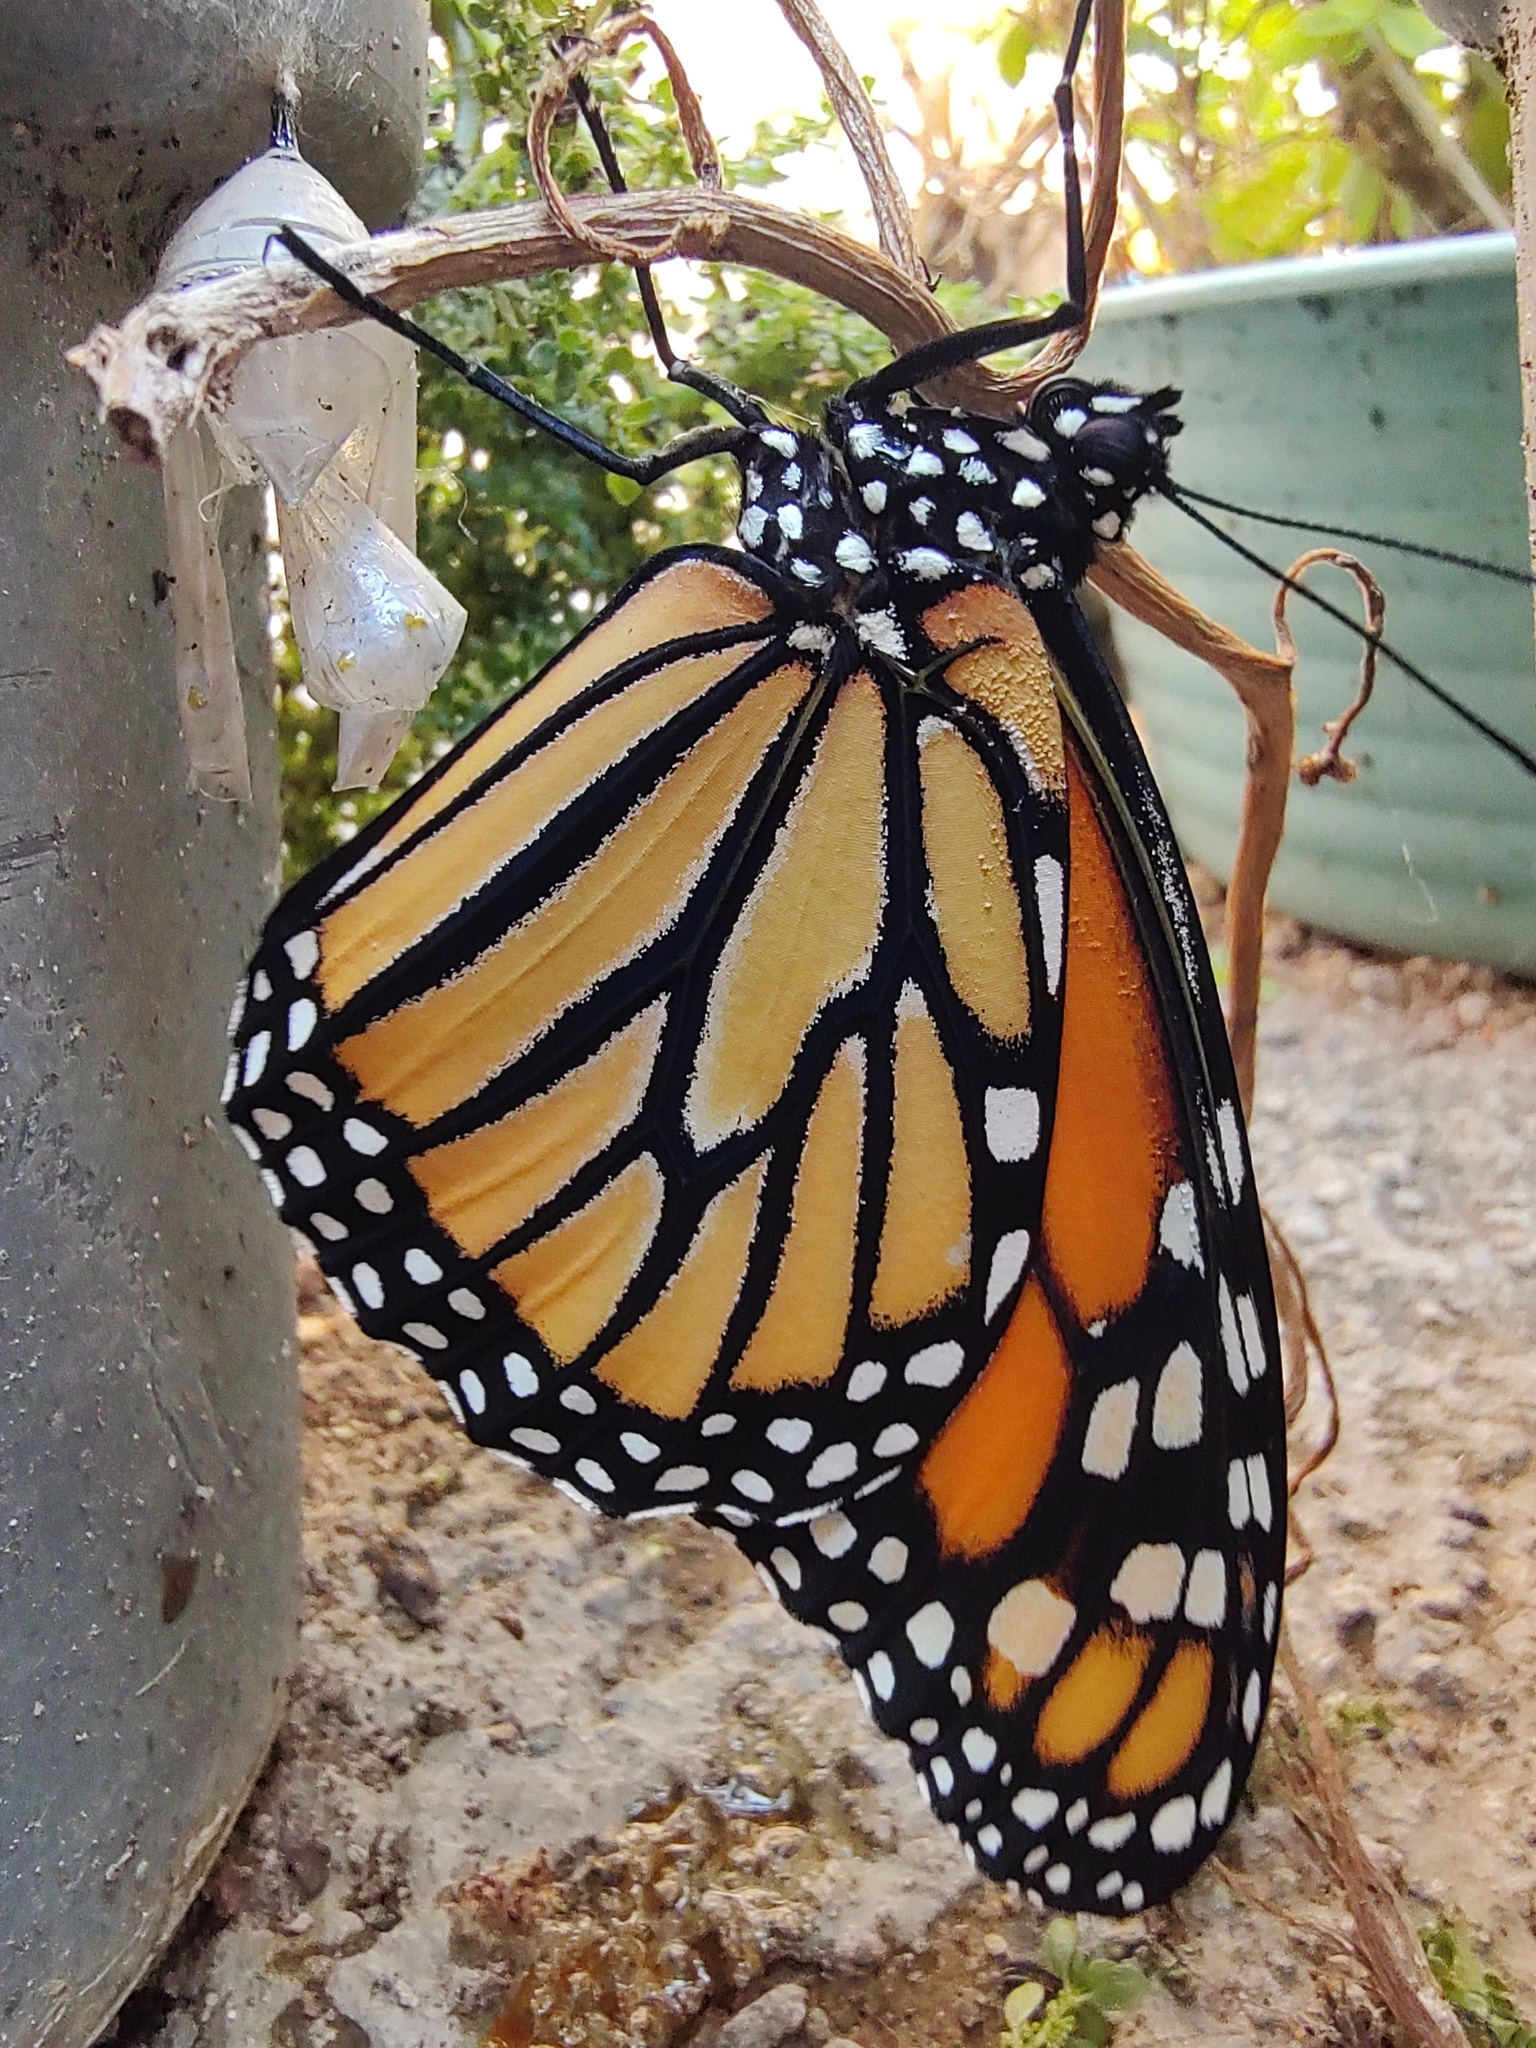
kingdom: Animalia
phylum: Arthropoda
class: Insecta
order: Lepidoptera
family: Nymphalidae
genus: Danaus
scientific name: Danaus plexippus
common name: Monarch
